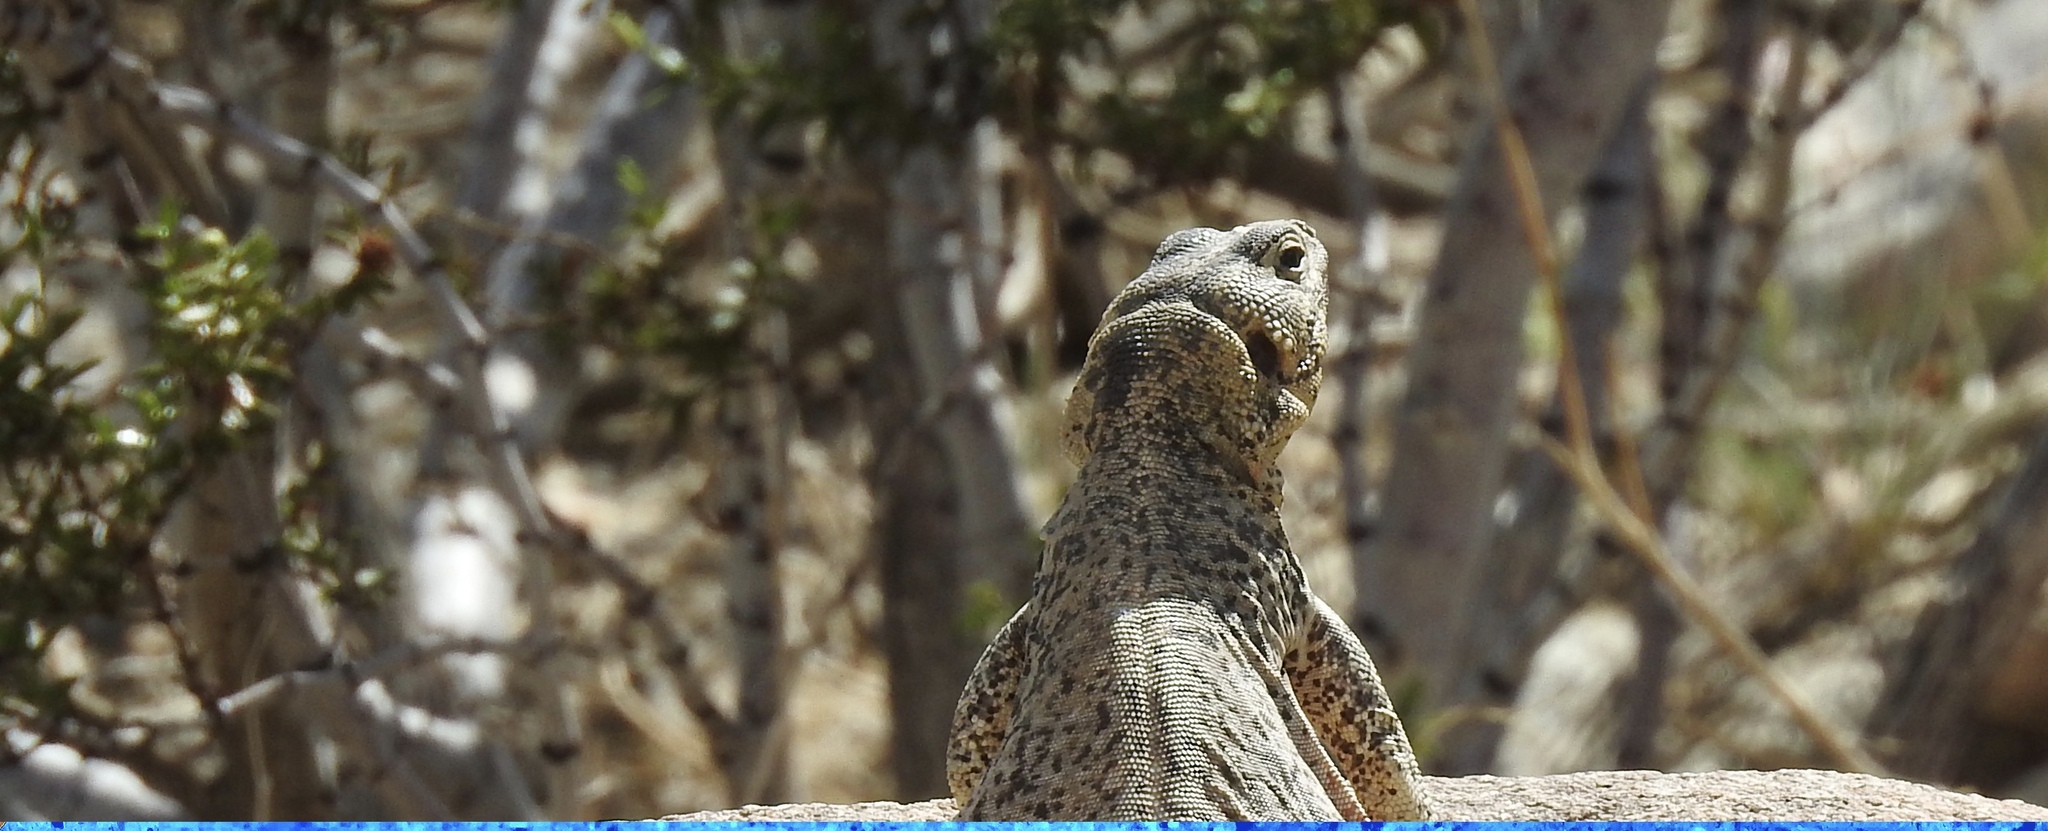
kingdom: Animalia
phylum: Chordata
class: Squamata
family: Iguanidae
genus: Sauromalus
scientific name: Sauromalus ater
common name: Northern chuckwalla
